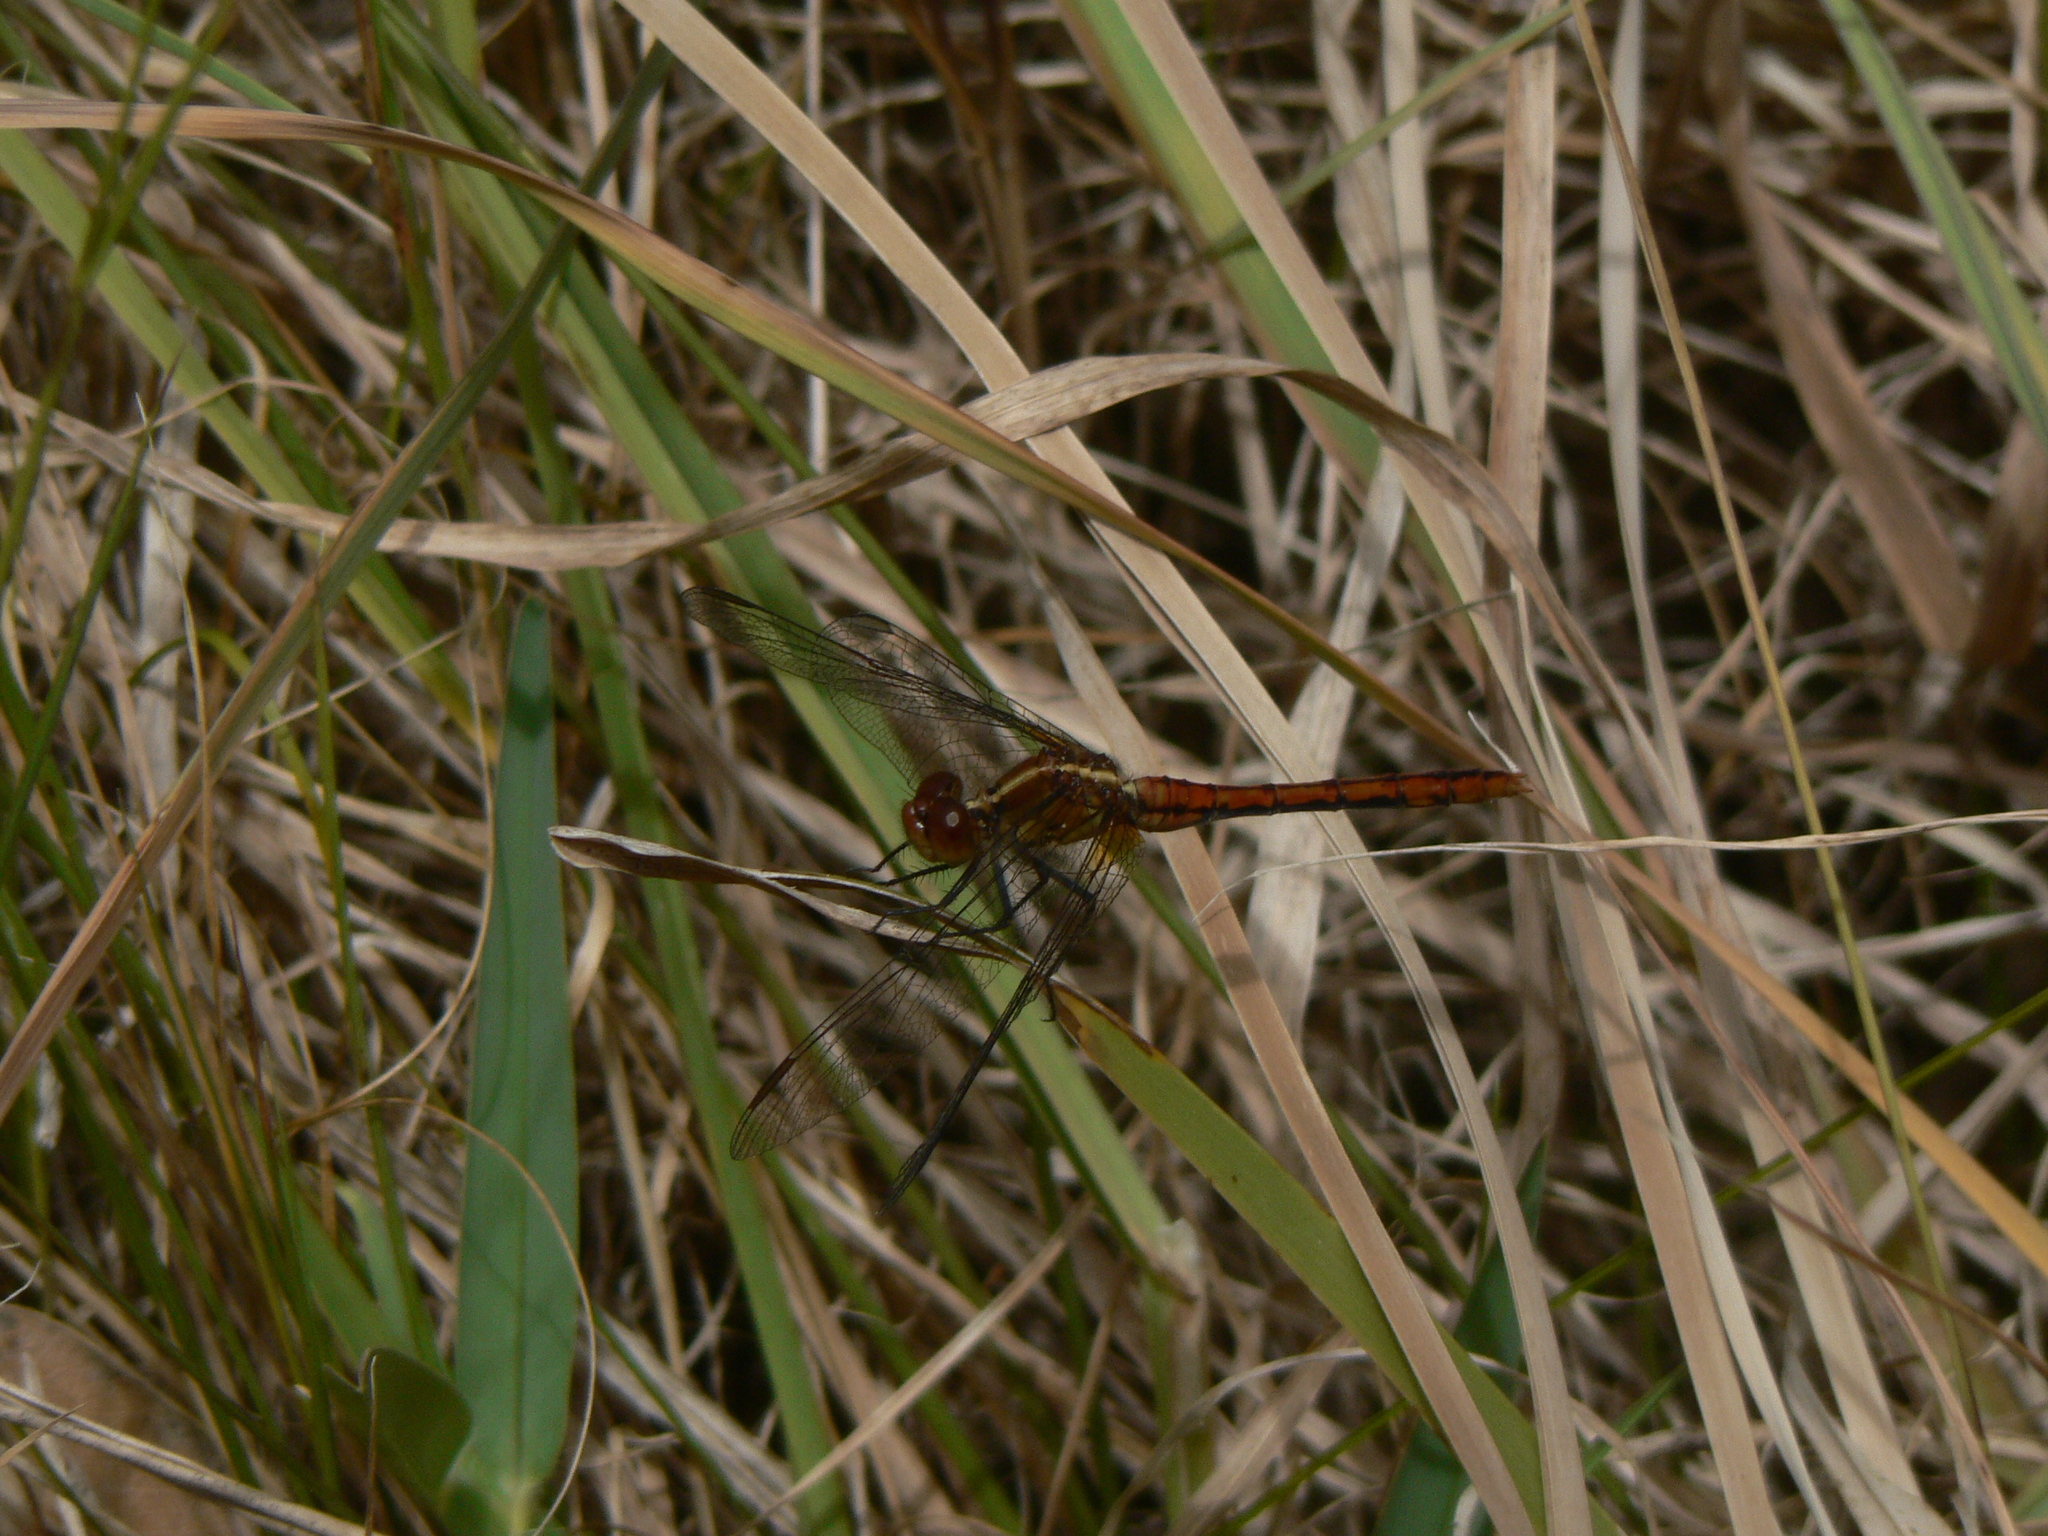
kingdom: Animalia
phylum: Arthropoda
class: Insecta
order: Odonata
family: Libellulidae
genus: Diplacodes
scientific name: Diplacodes bipunctata
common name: Red percher dragonfly
